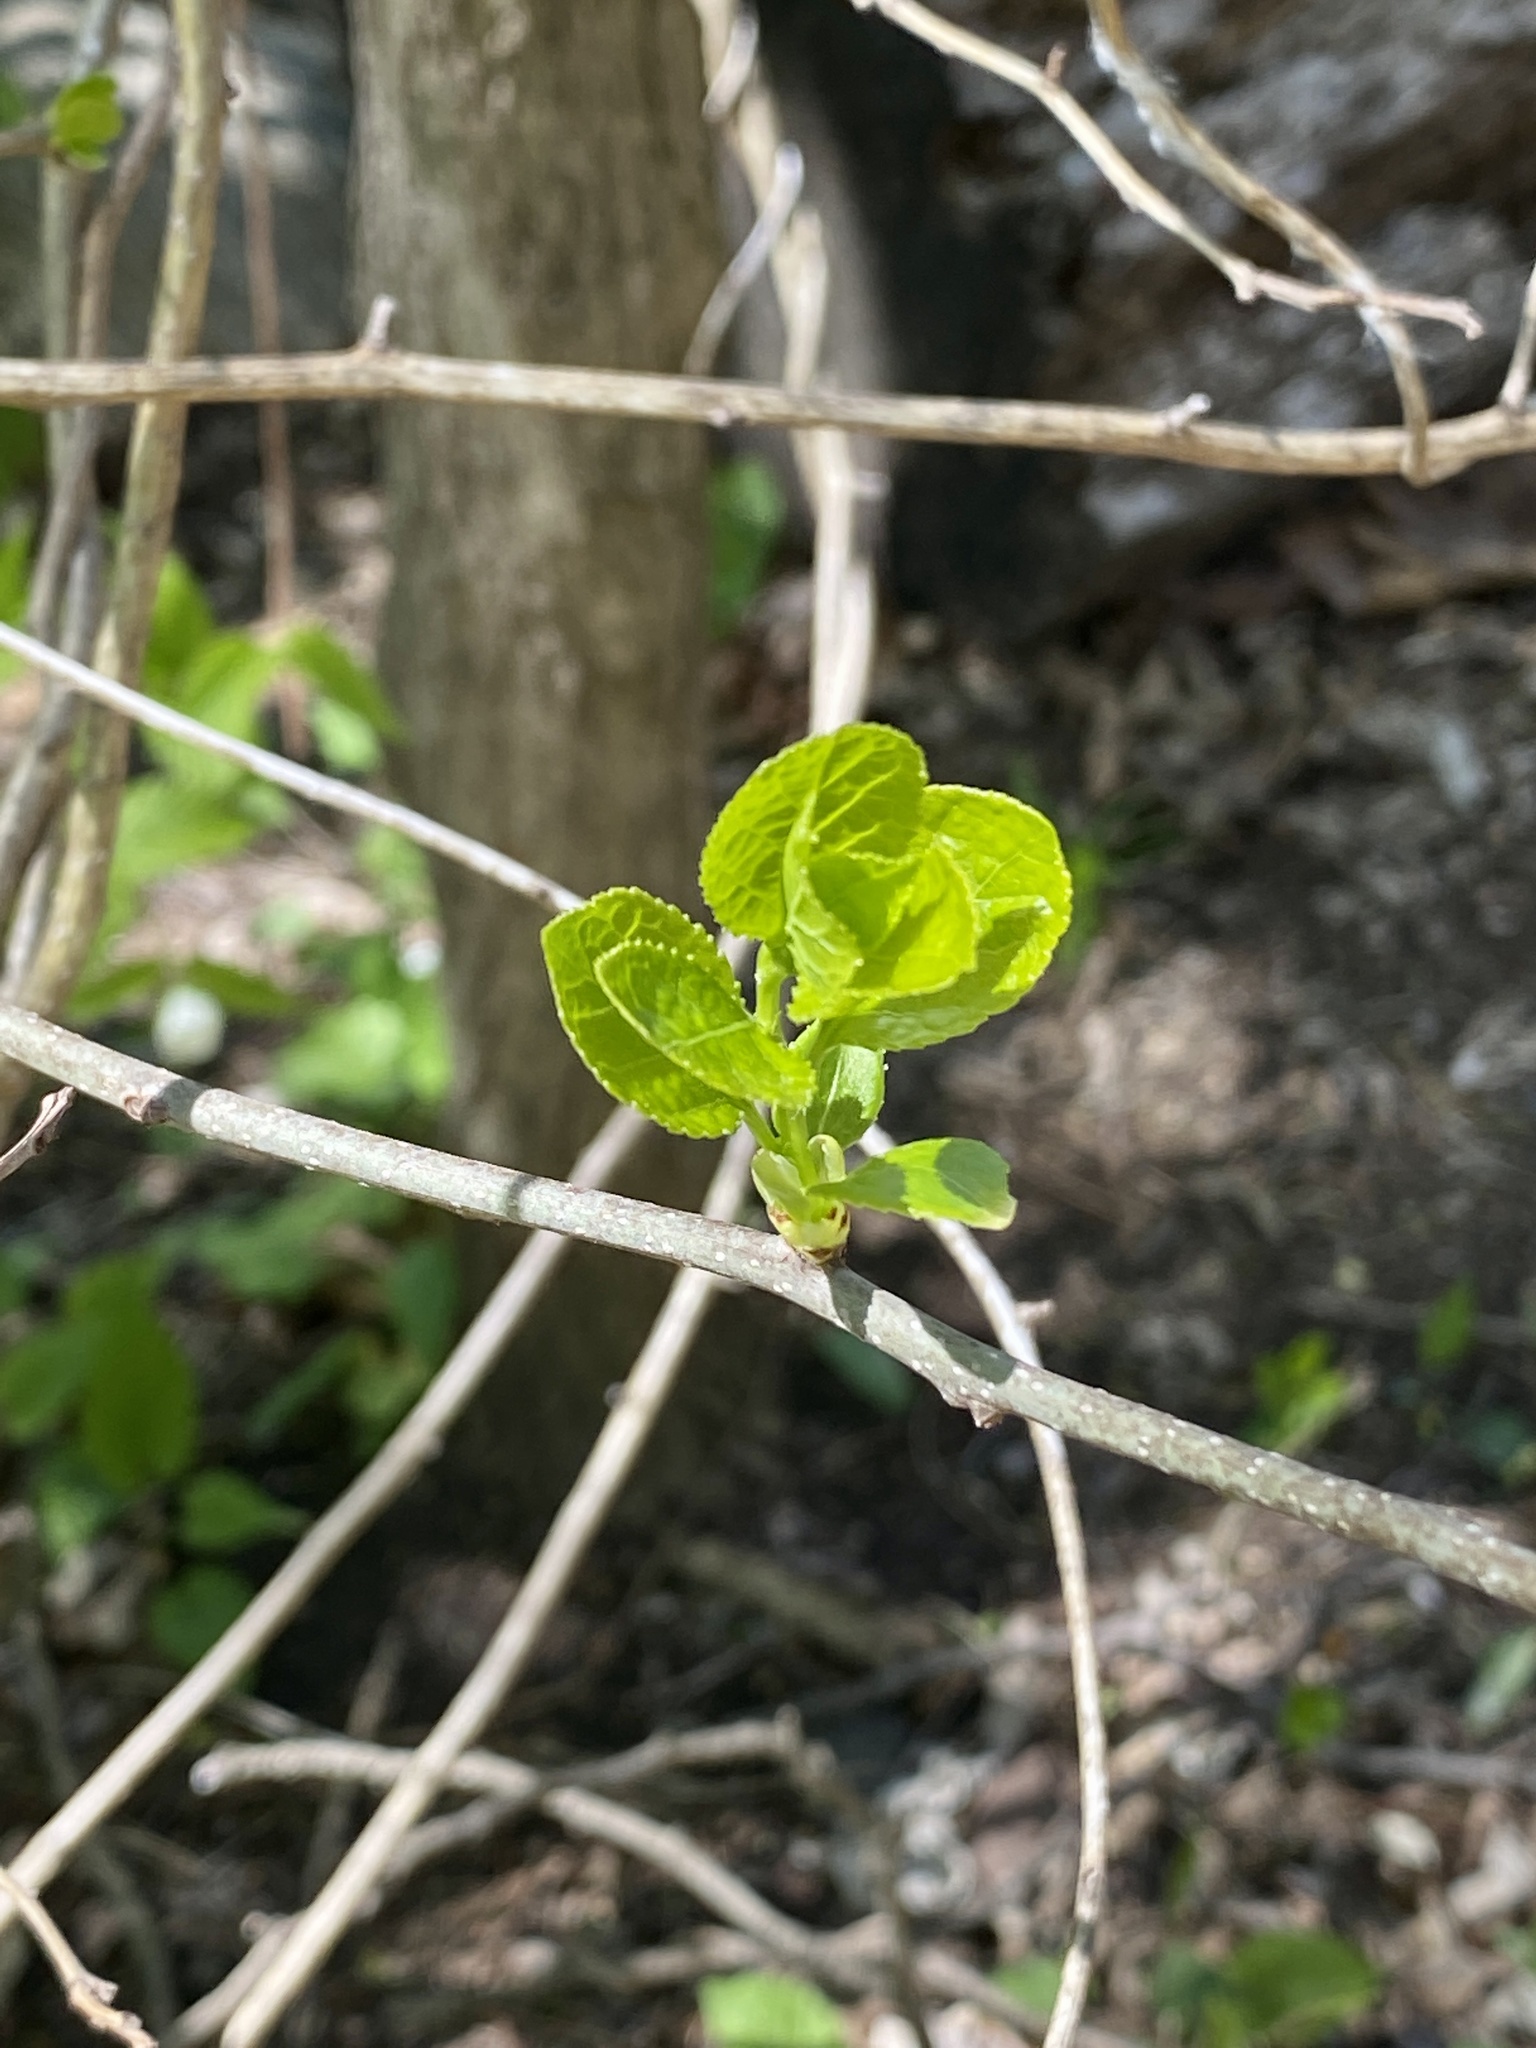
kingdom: Plantae
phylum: Tracheophyta
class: Magnoliopsida
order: Celastrales
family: Celastraceae
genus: Celastrus
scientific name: Celastrus orbiculatus
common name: Oriental bittersweet
